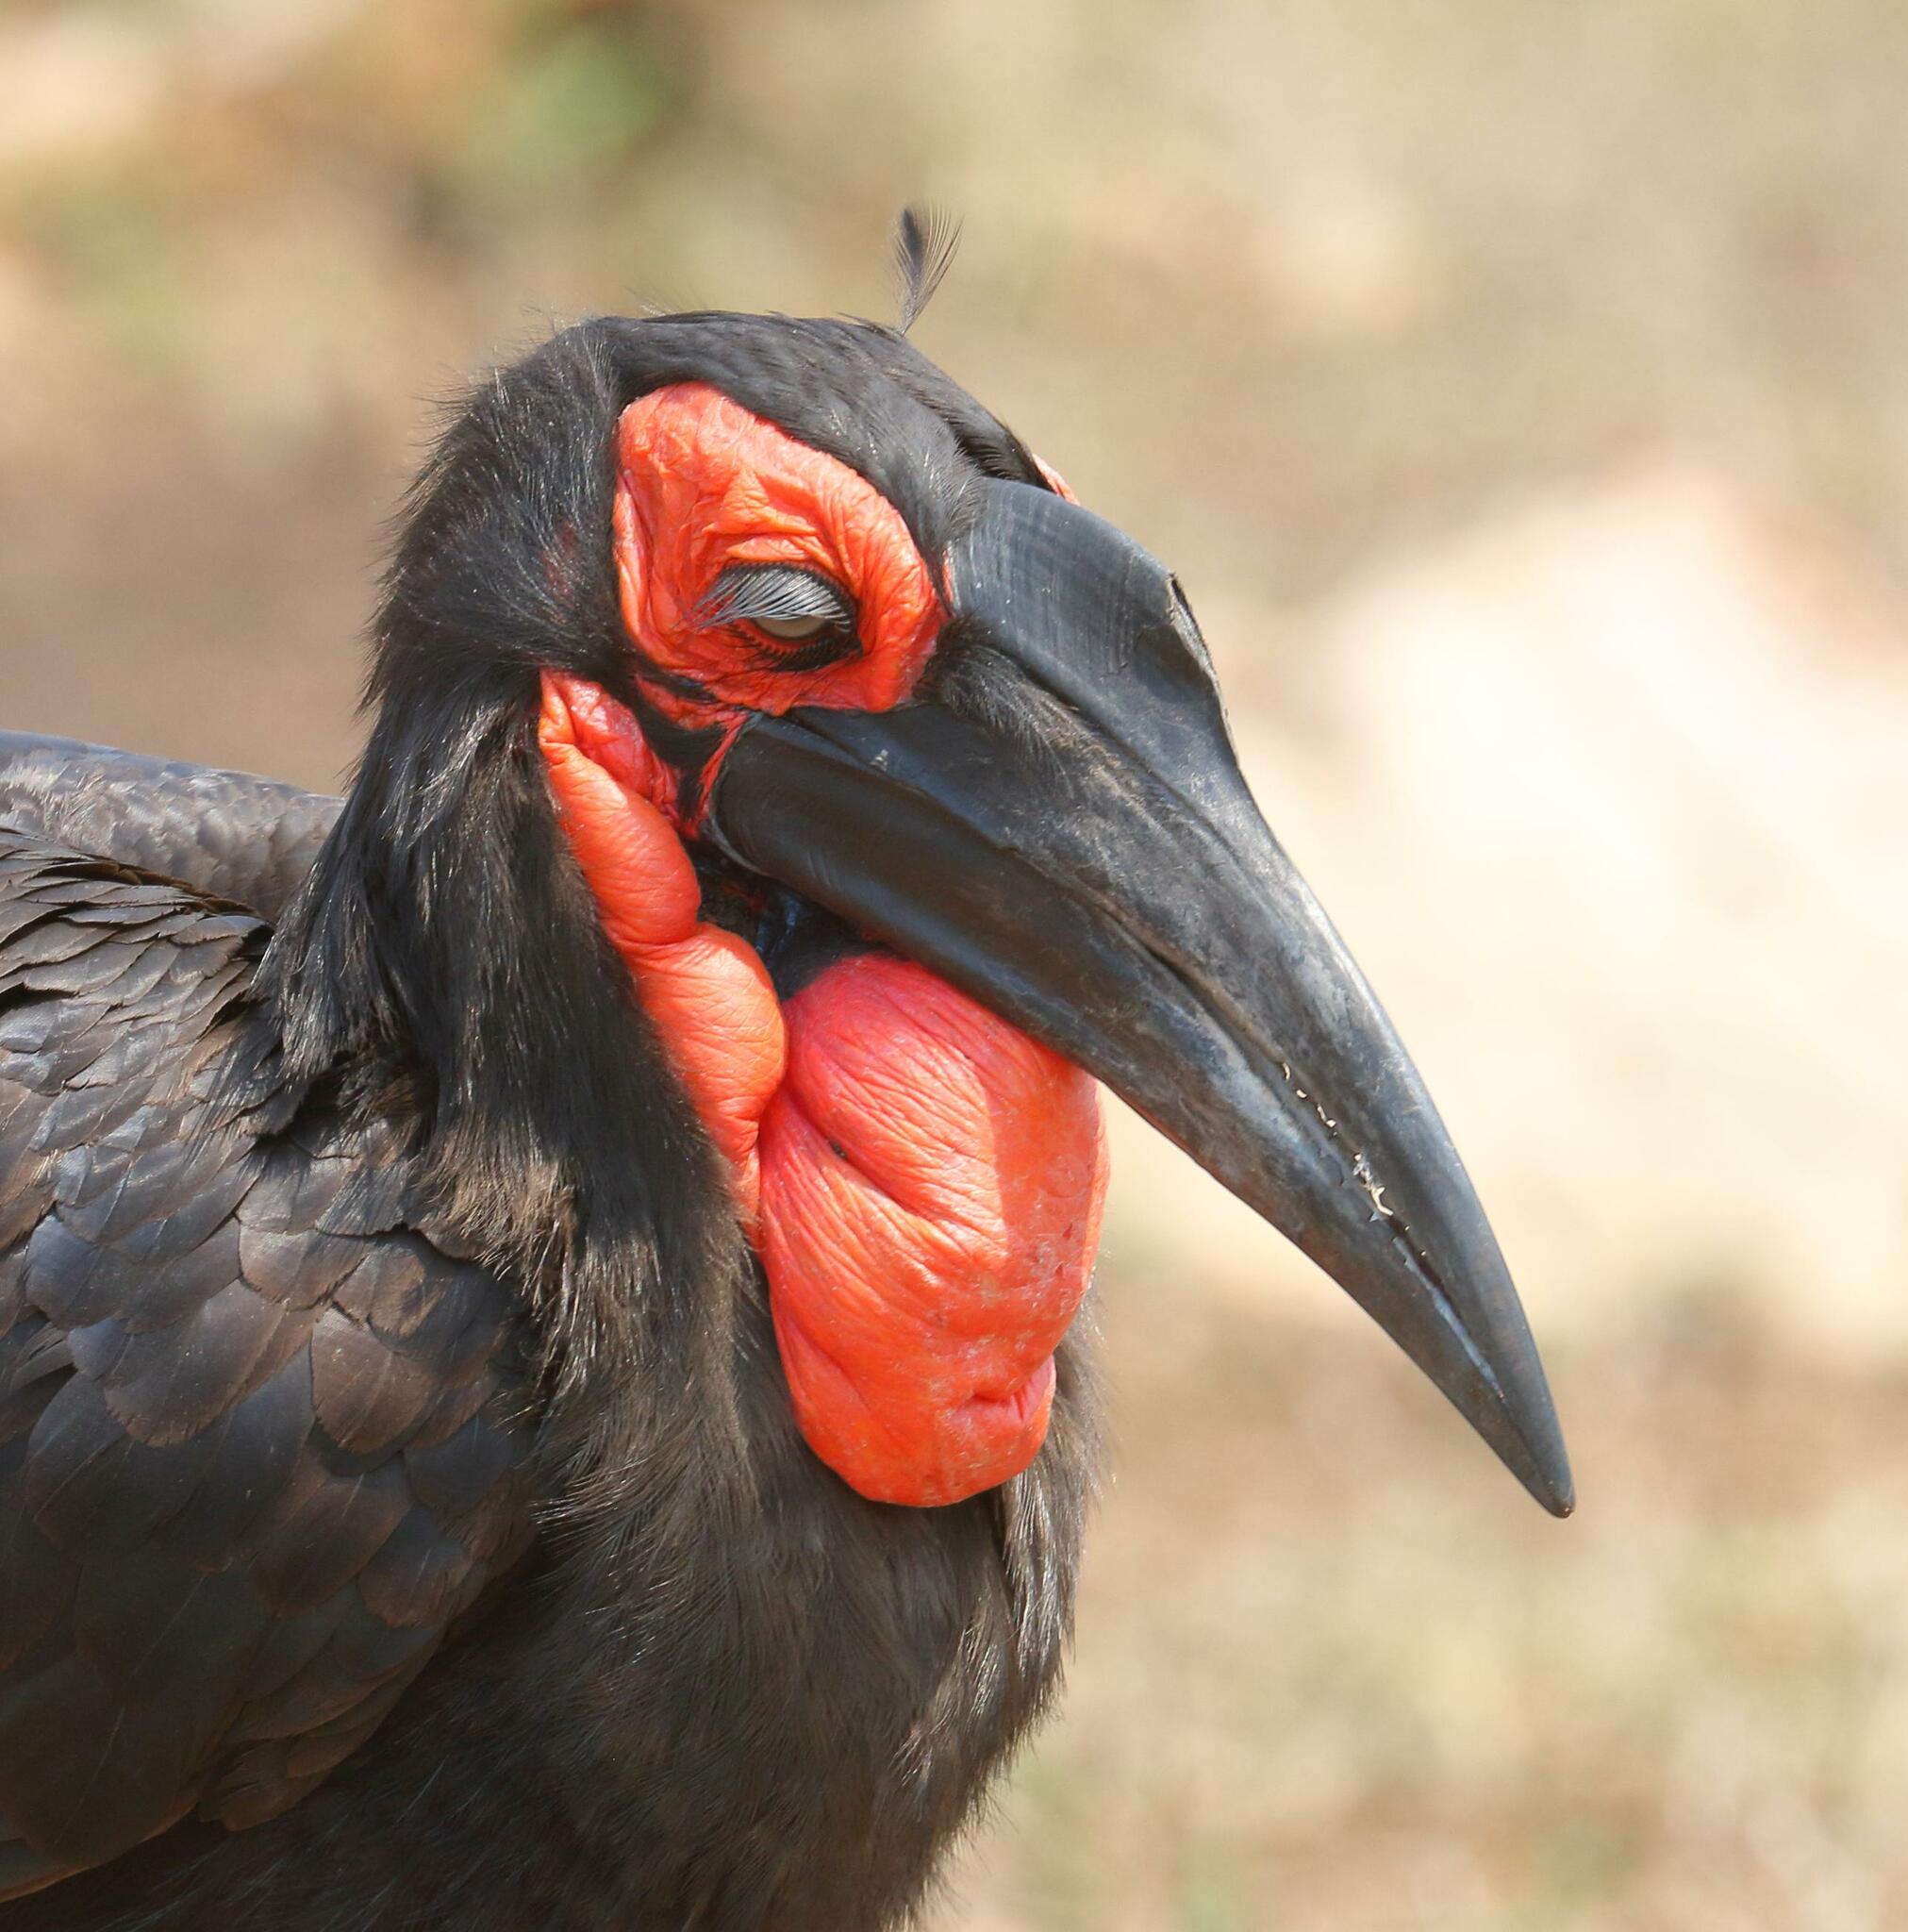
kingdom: Animalia
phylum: Chordata
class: Aves
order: Bucerotiformes
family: Bucorvidae
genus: Bucorvus
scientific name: Bucorvus leadbeateri
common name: Southern ground-hornbill
